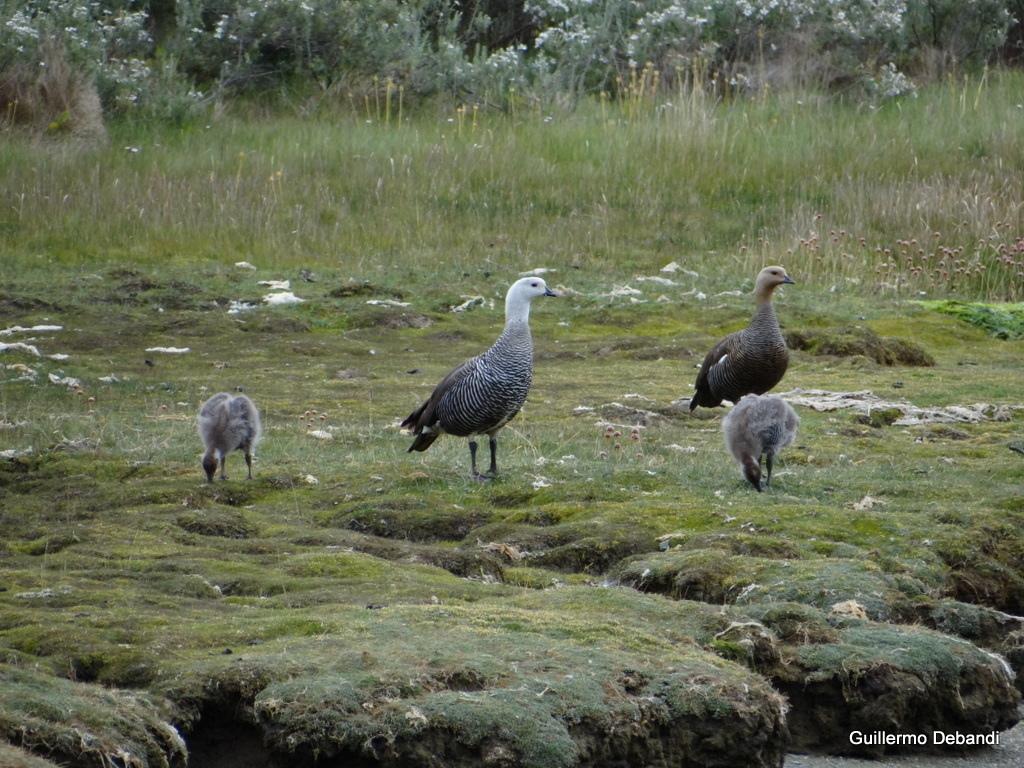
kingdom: Animalia
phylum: Chordata
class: Aves
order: Anseriformes
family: Anatidae
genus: Chloephaga
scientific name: Chloephaga picta
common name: Upland goose
